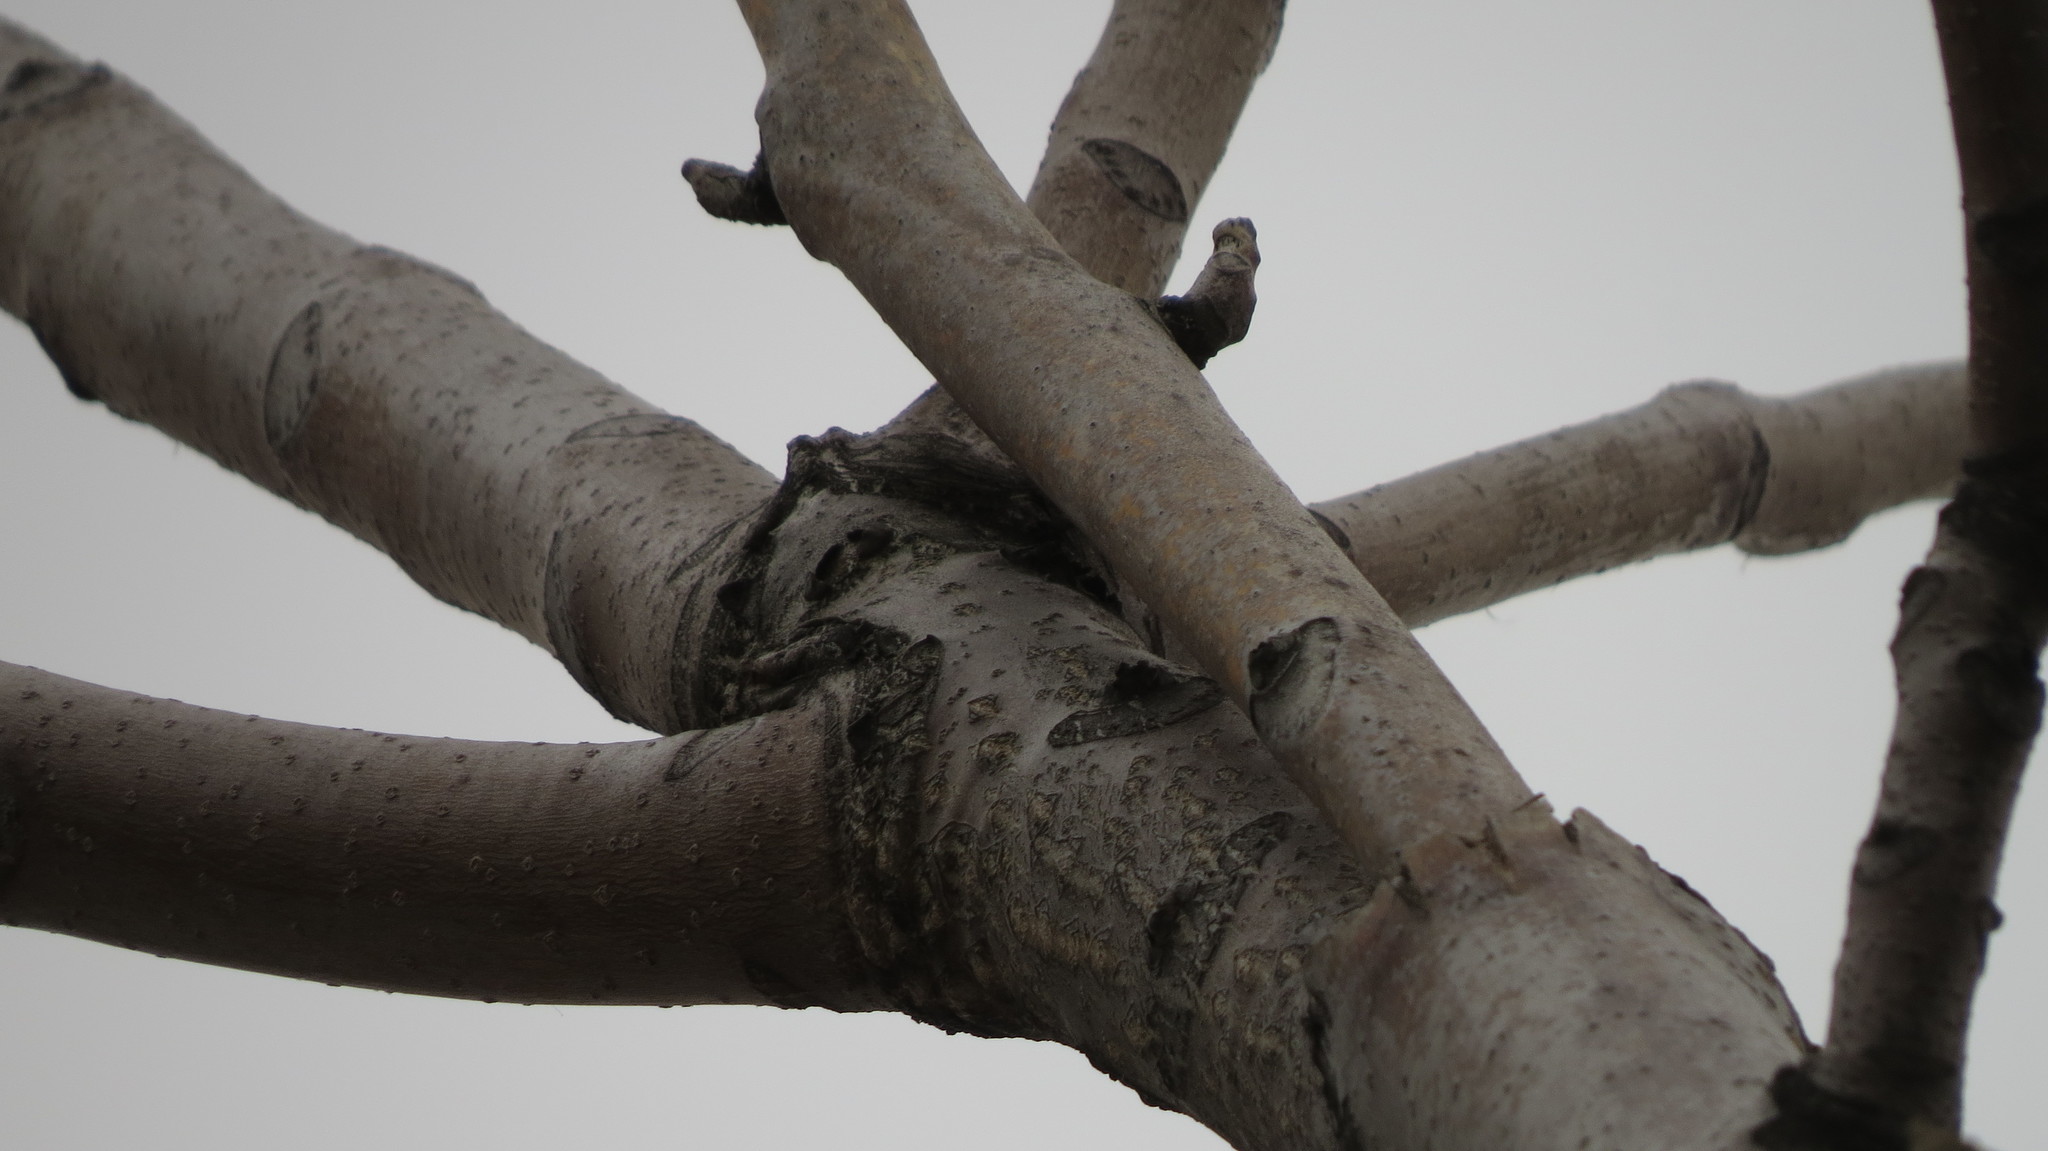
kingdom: Plantae
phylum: Tracheophyta
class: Magnoliopsida
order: Sapindales
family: Simaroubaceae
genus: Ailanthus
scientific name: Ailanthus altissima
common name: Tree-of-heaven
